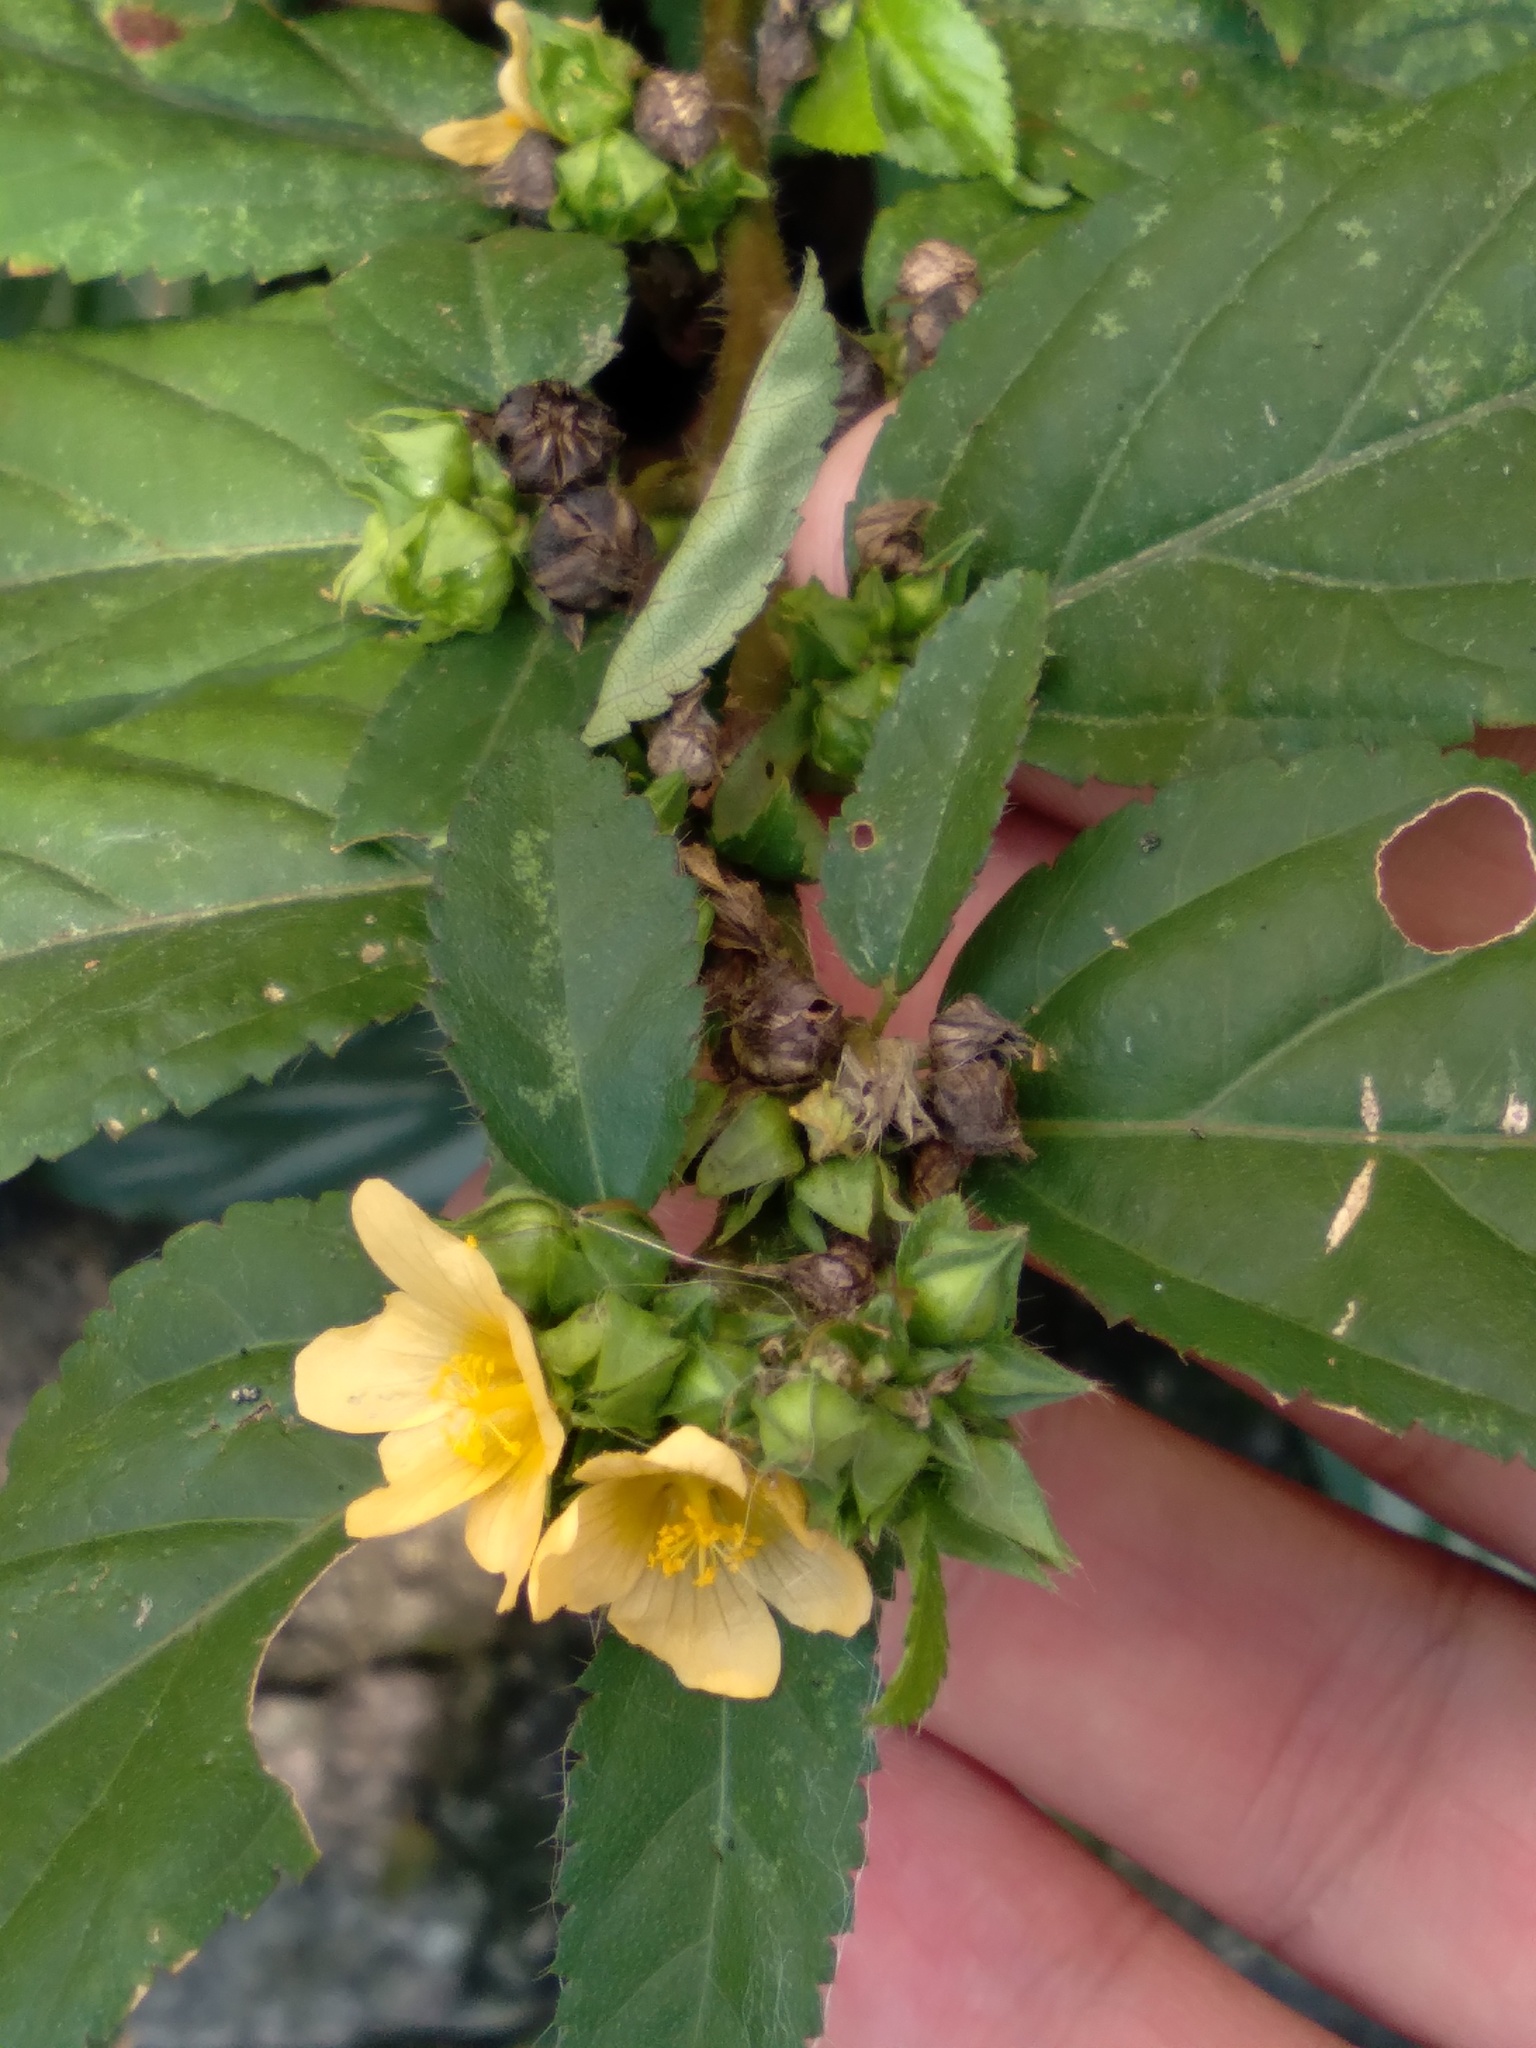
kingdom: Plantae
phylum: Tracheophyta
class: Magnoliopsida
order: Malvales
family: Malvaceae
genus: Sida
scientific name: Sida planicaulis
